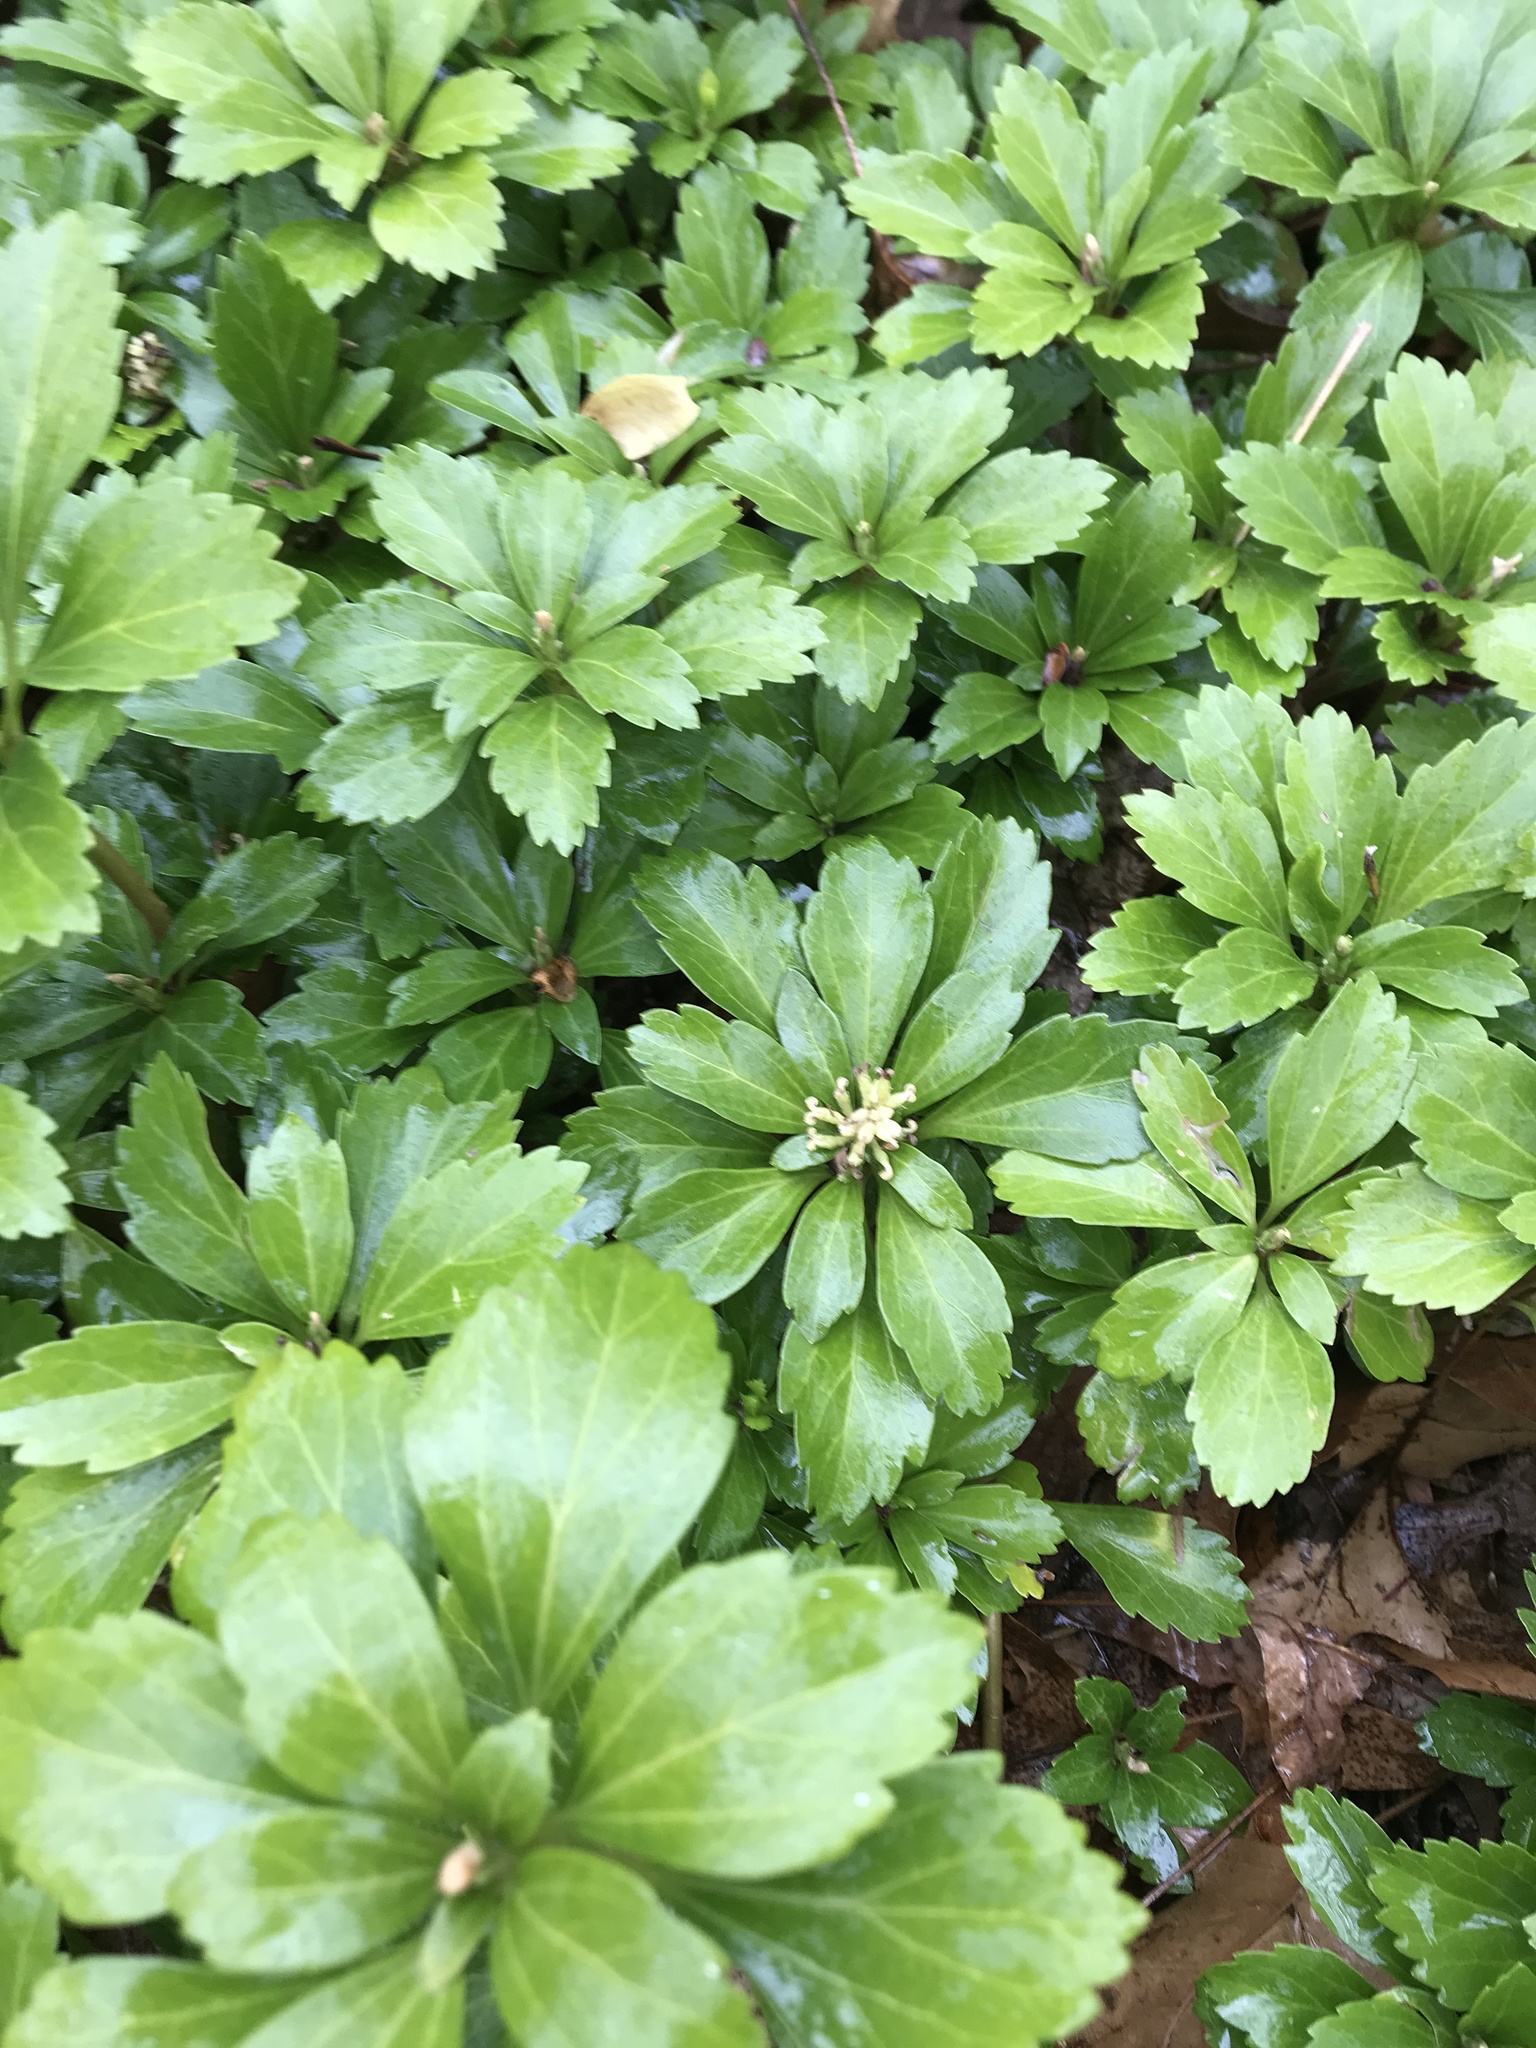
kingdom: Plantae
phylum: Tracheophyta
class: Magnoliopsida
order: Buxales
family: Buxaceae
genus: Pachysandra
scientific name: Pachysandra terminalis
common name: Japanese pachysandra
